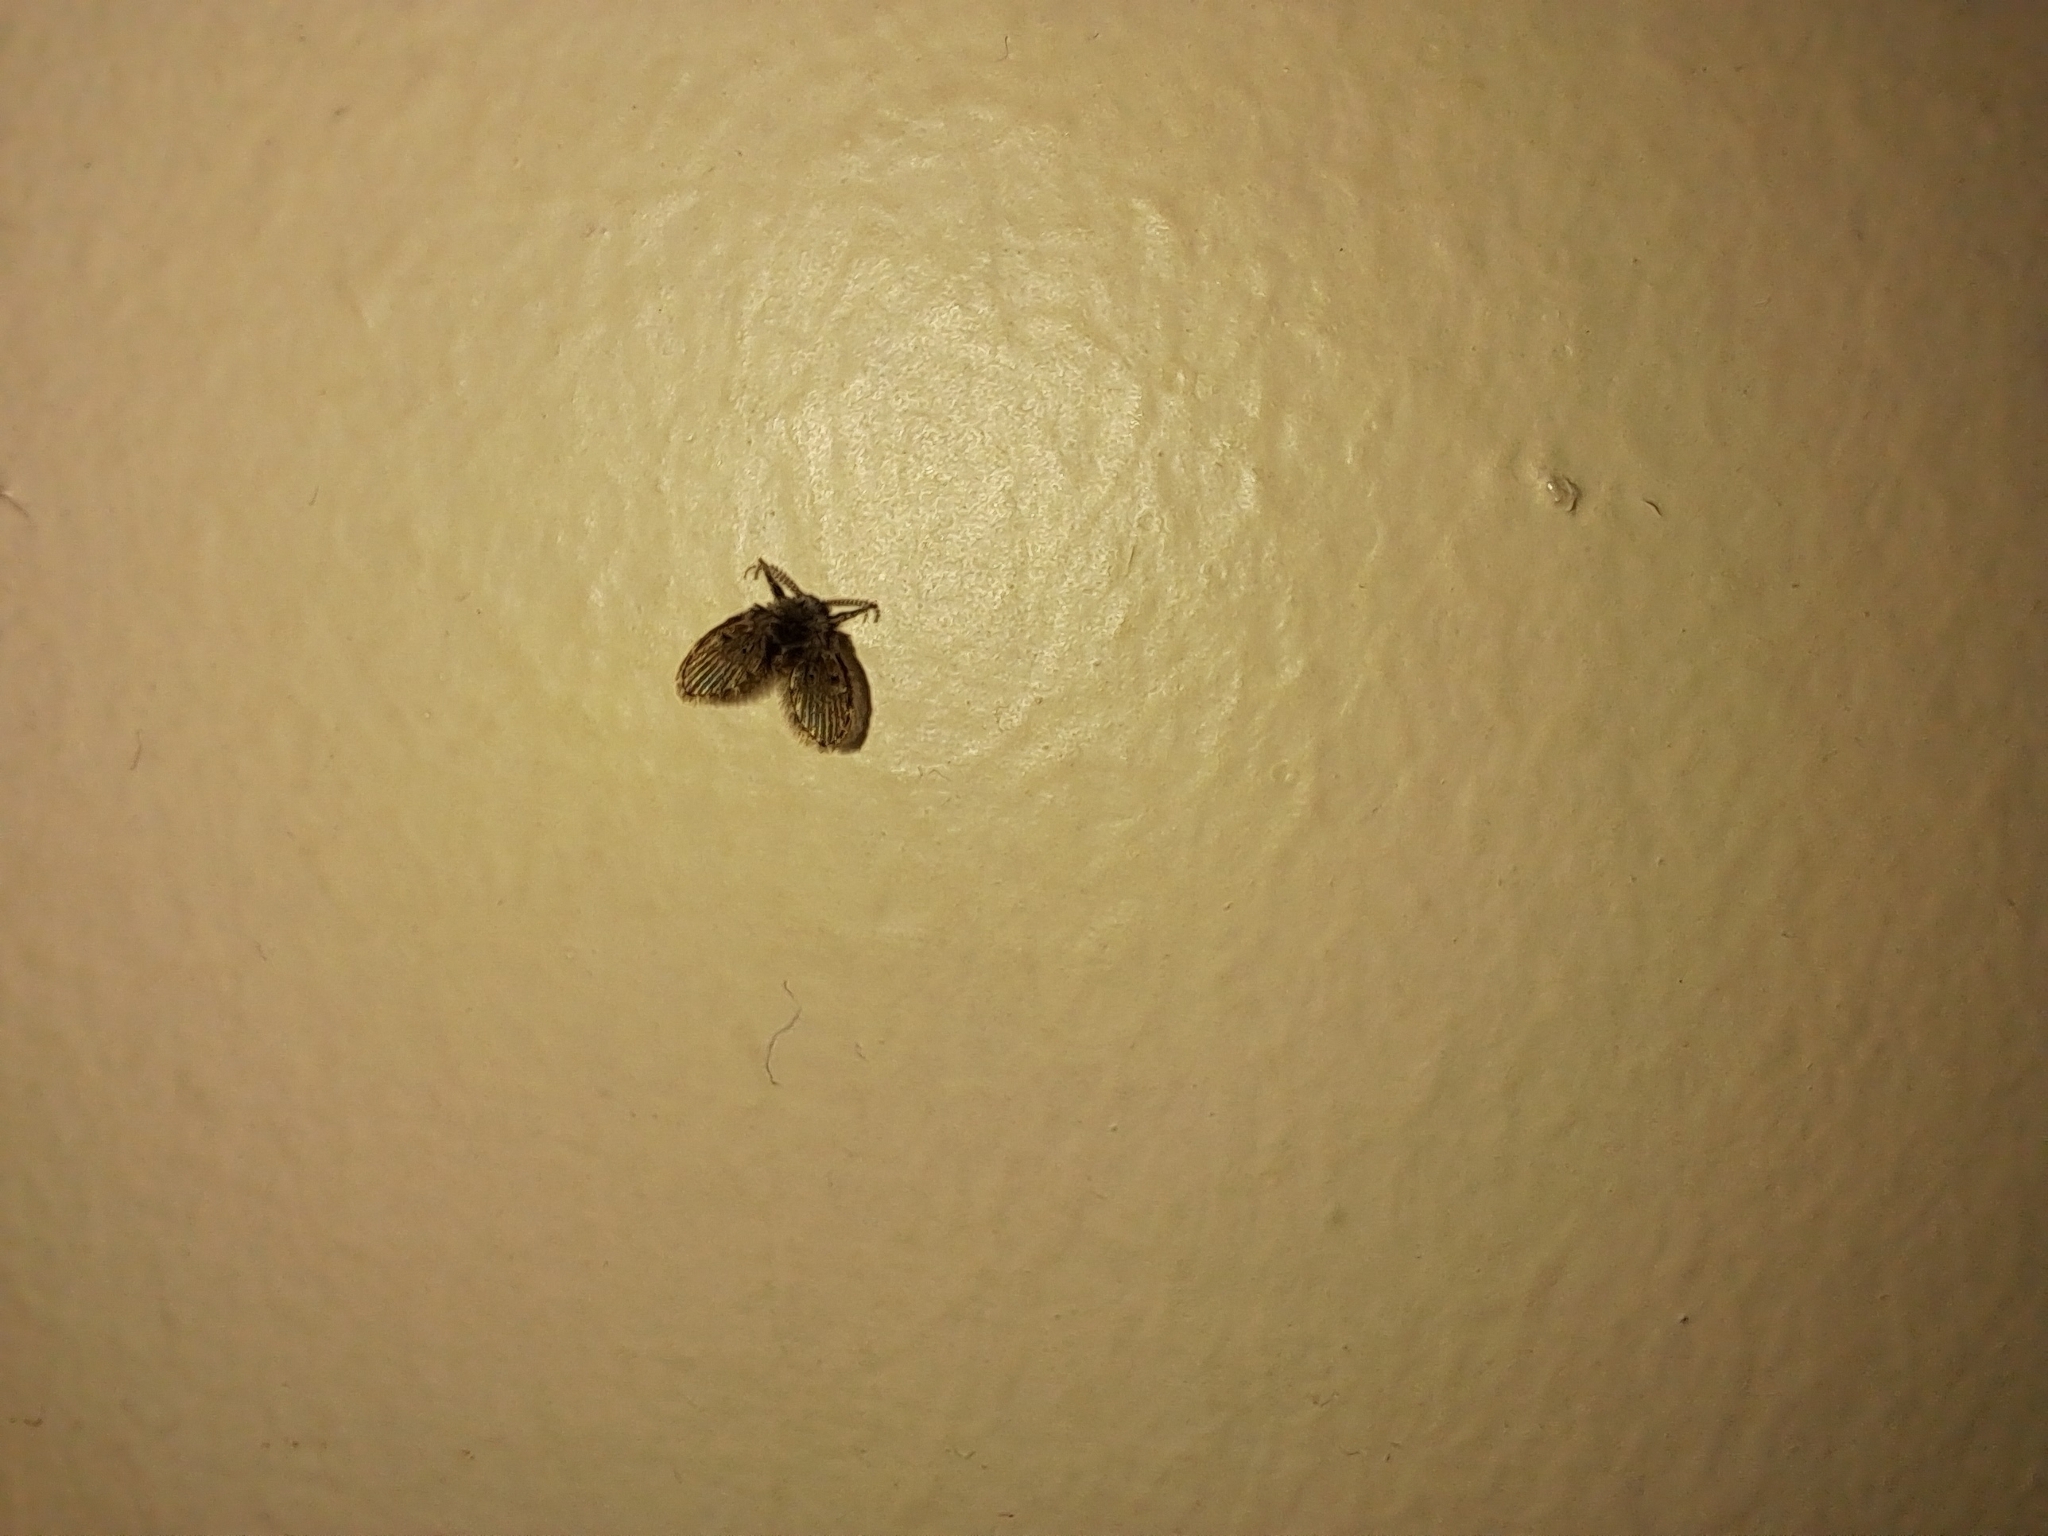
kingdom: Animalia
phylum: Arthropoda
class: Insecta
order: Diptera
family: Psychodidae
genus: Clogmia
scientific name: Clogmia albipunctatus
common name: White-spotted moth fly
